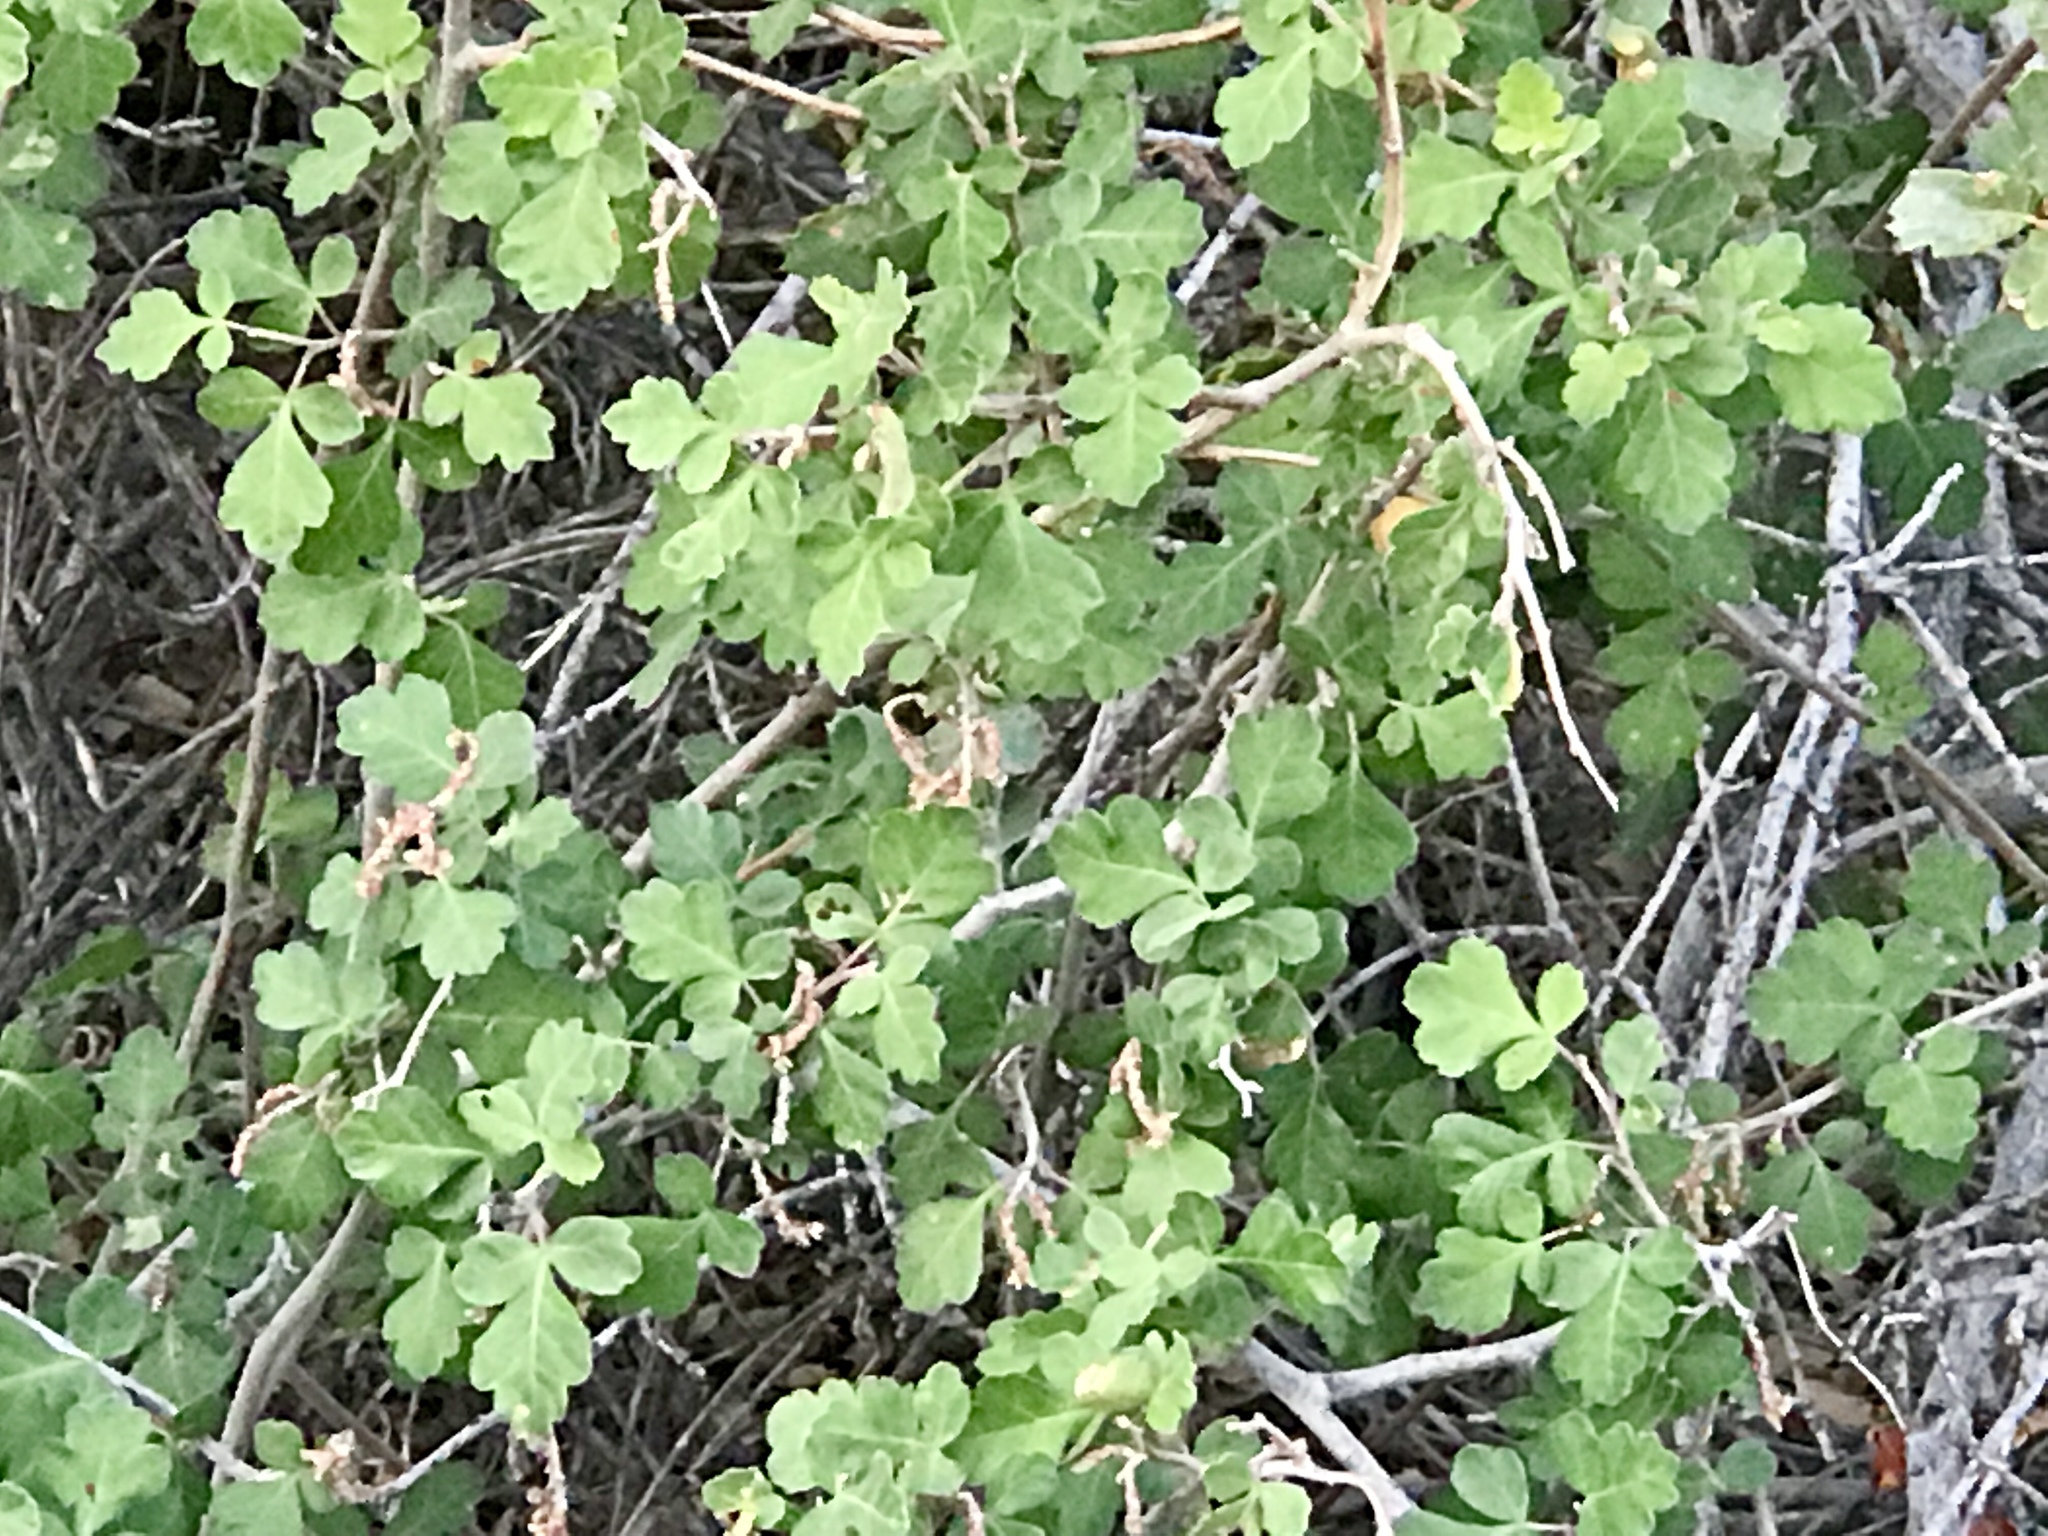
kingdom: Plantae
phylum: Tracheophyta
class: Magnoliopsida
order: Sapindales
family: Anacardiaceae
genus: Rhus
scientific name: Rhus aromatica
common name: Aromatic sumac
